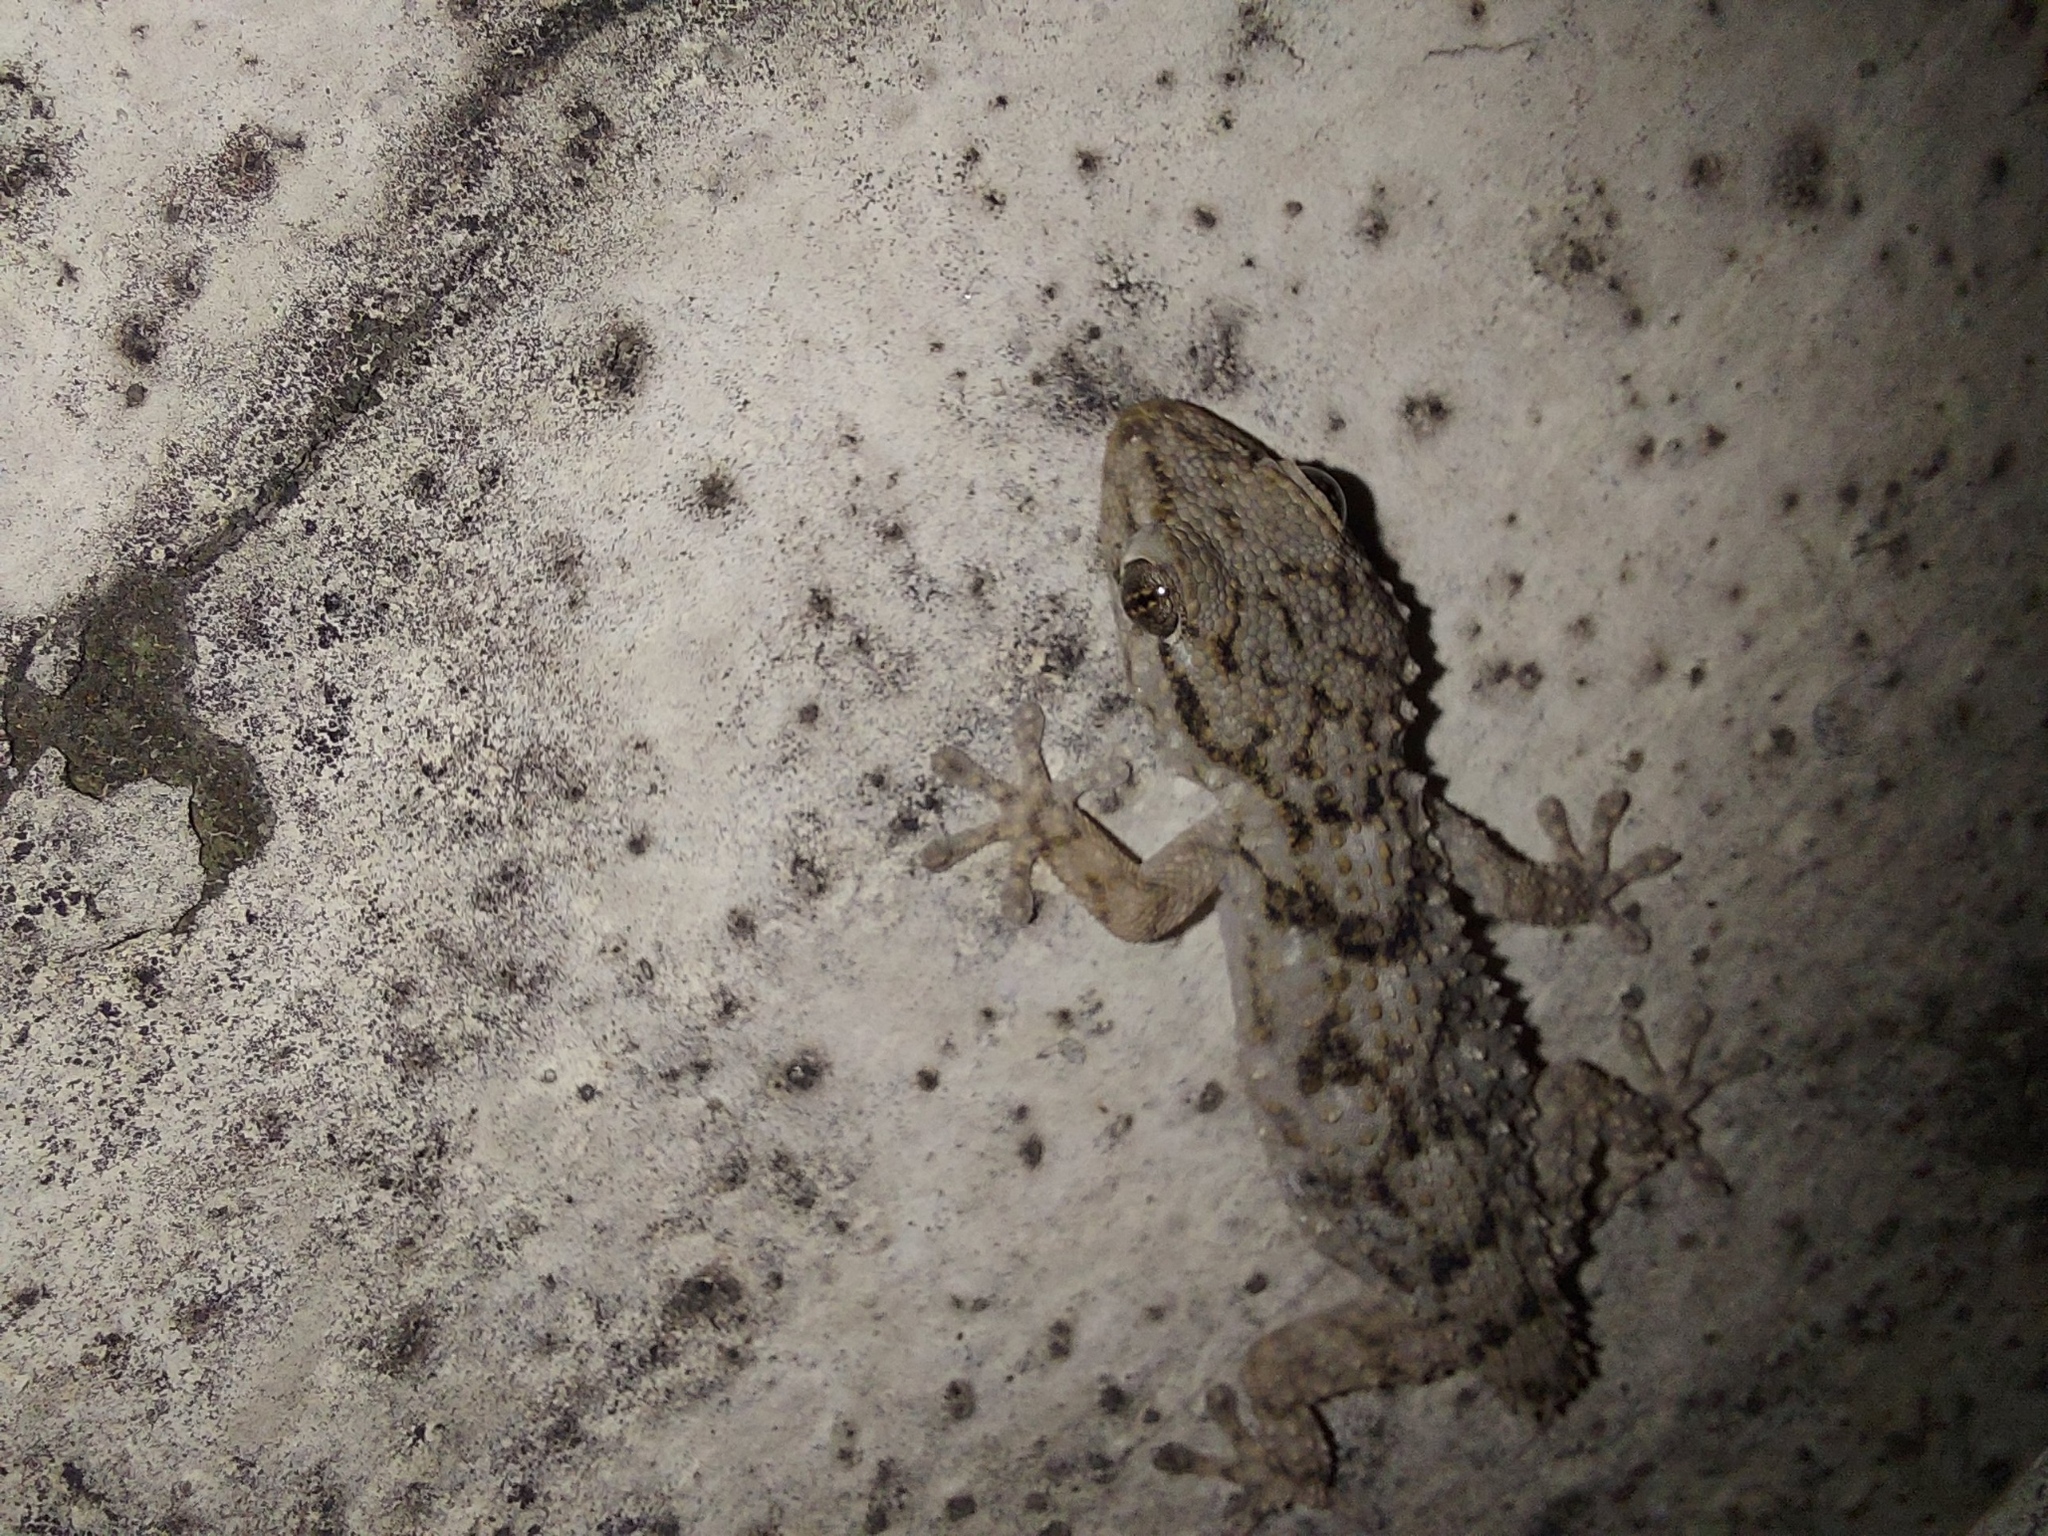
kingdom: Animalia
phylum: Chordata
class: Squamata
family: Phyllodactylidae
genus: Tarentola
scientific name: Tarentola mauritanica
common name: Moorish gecko
